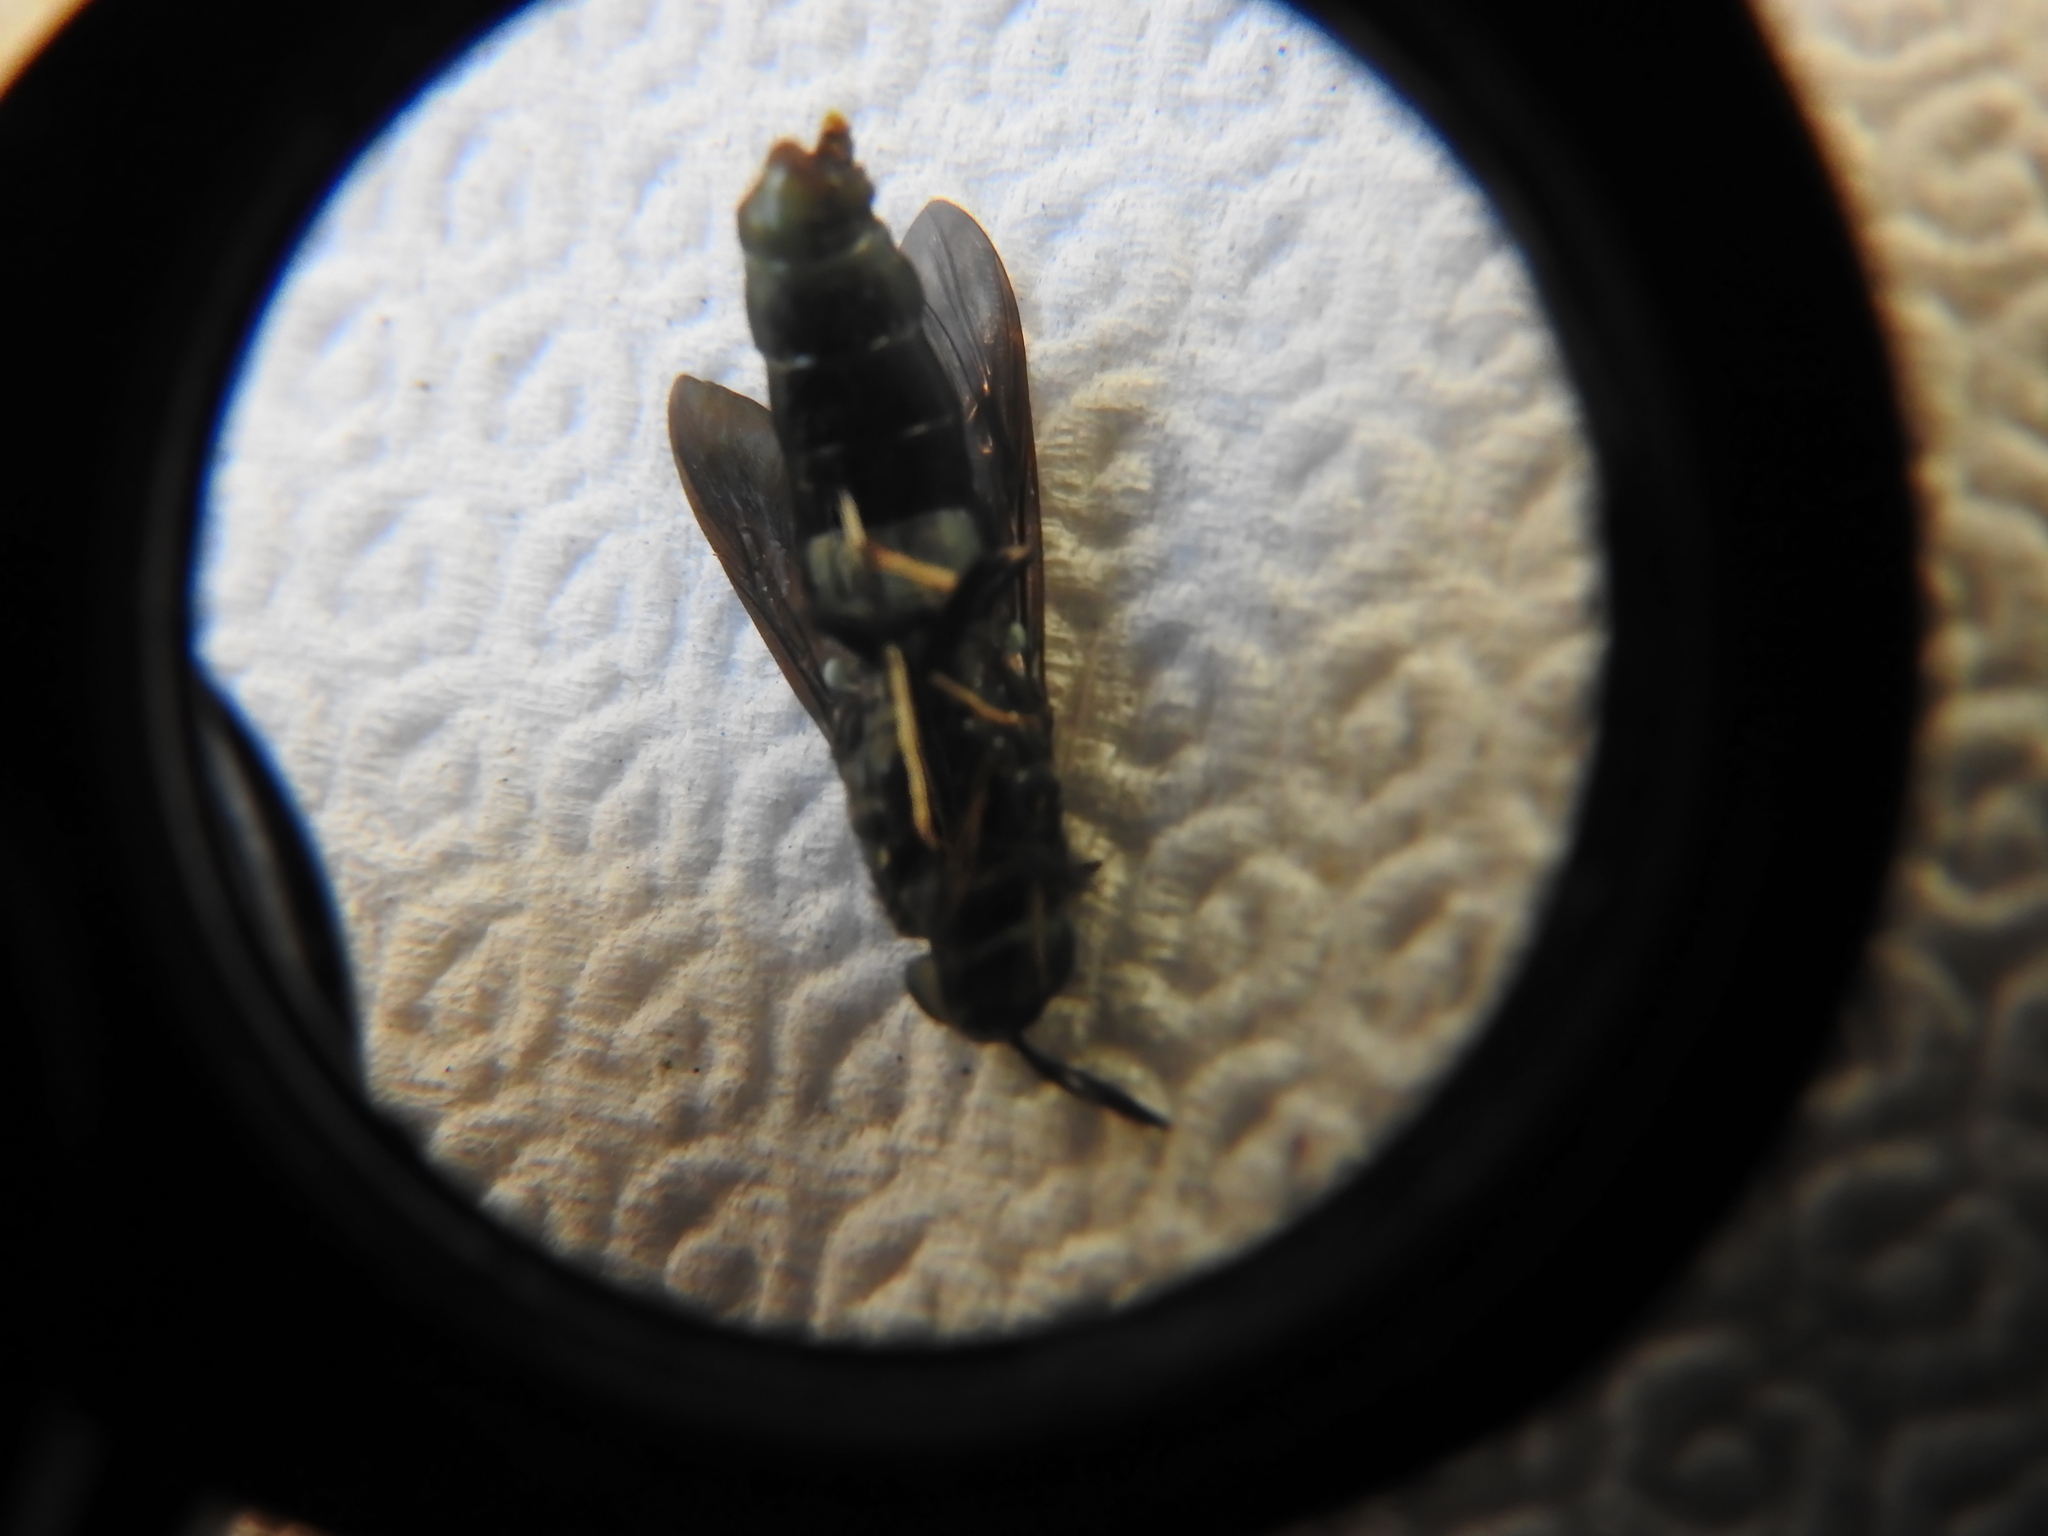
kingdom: Animalia
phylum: Arthropoda
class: Insecta
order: Diptera
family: Stratiomyidae
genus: Hermetia
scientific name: Hermetia
